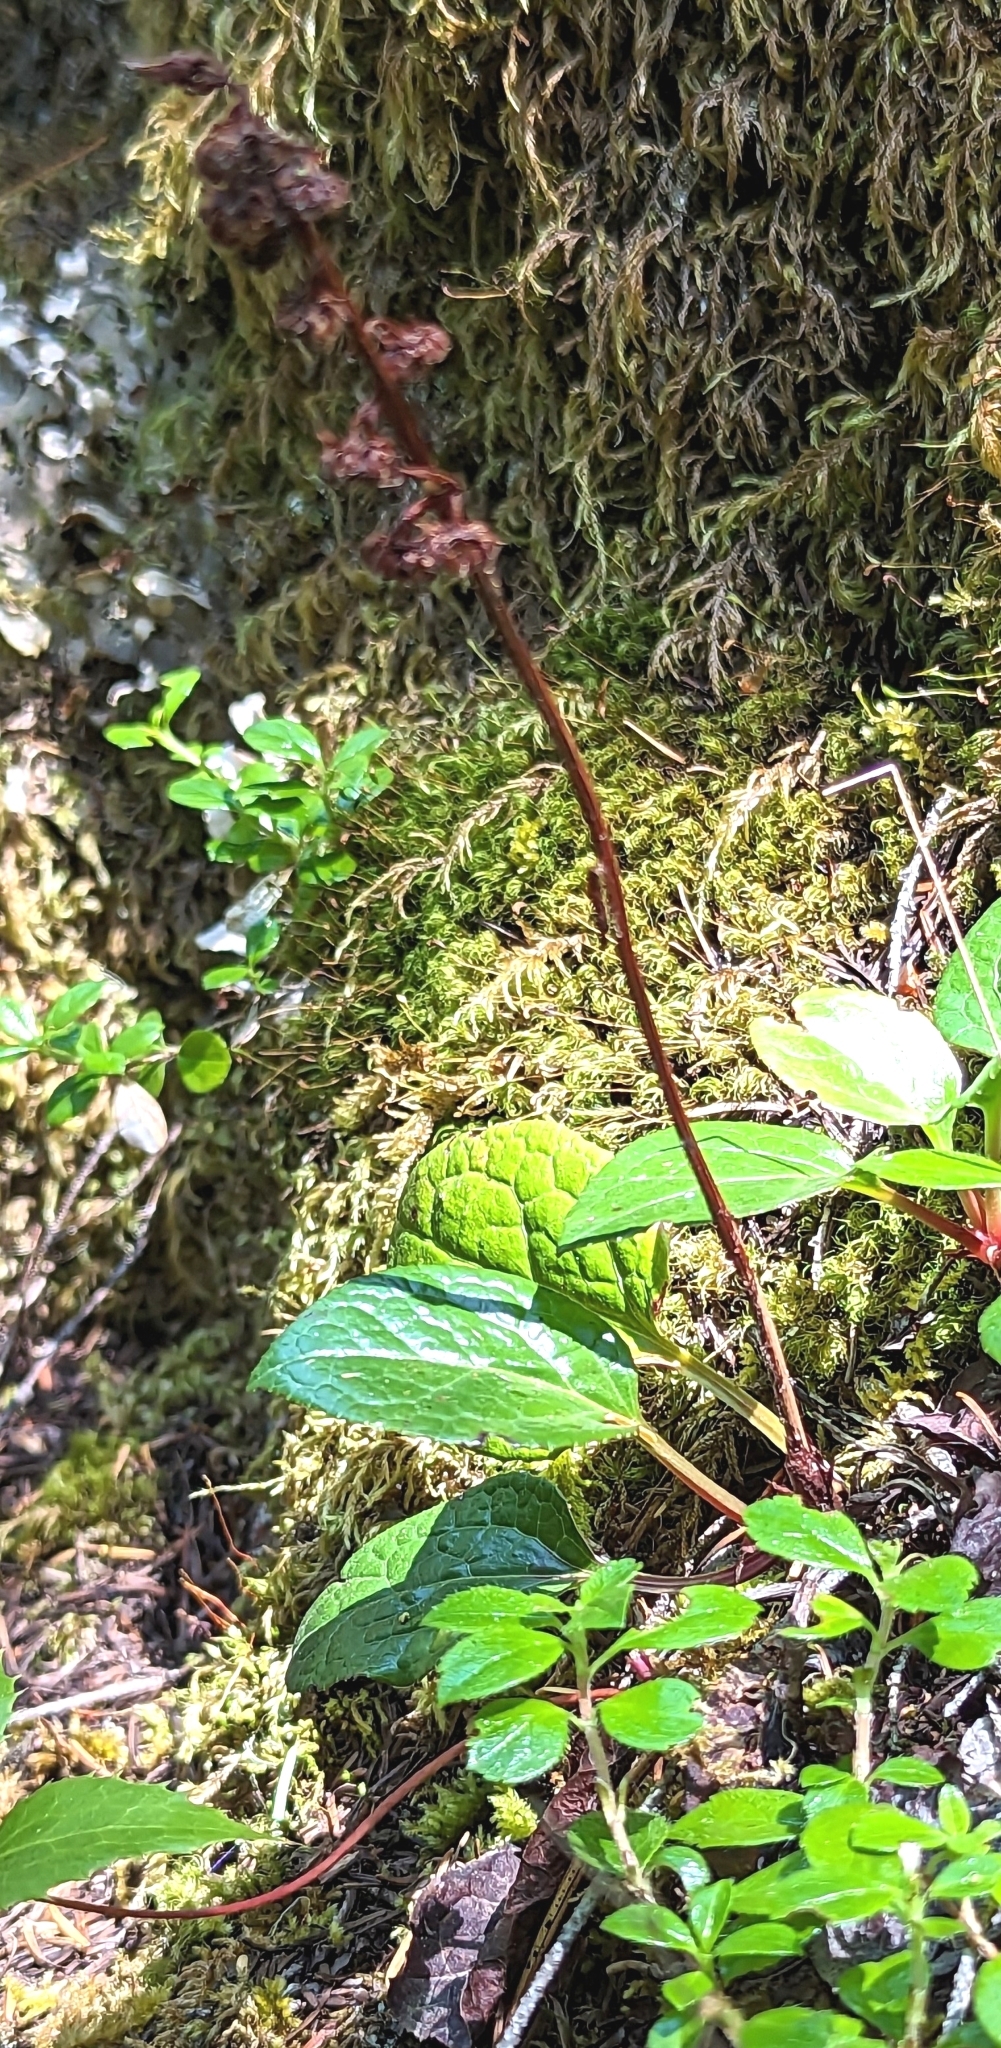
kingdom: Plantae
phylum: Tracheophyta
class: Magnoliopsida
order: Ericales
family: Ericaceae
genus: Pyrola
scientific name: Pyrola asarifolia
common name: Bog wintergreen
